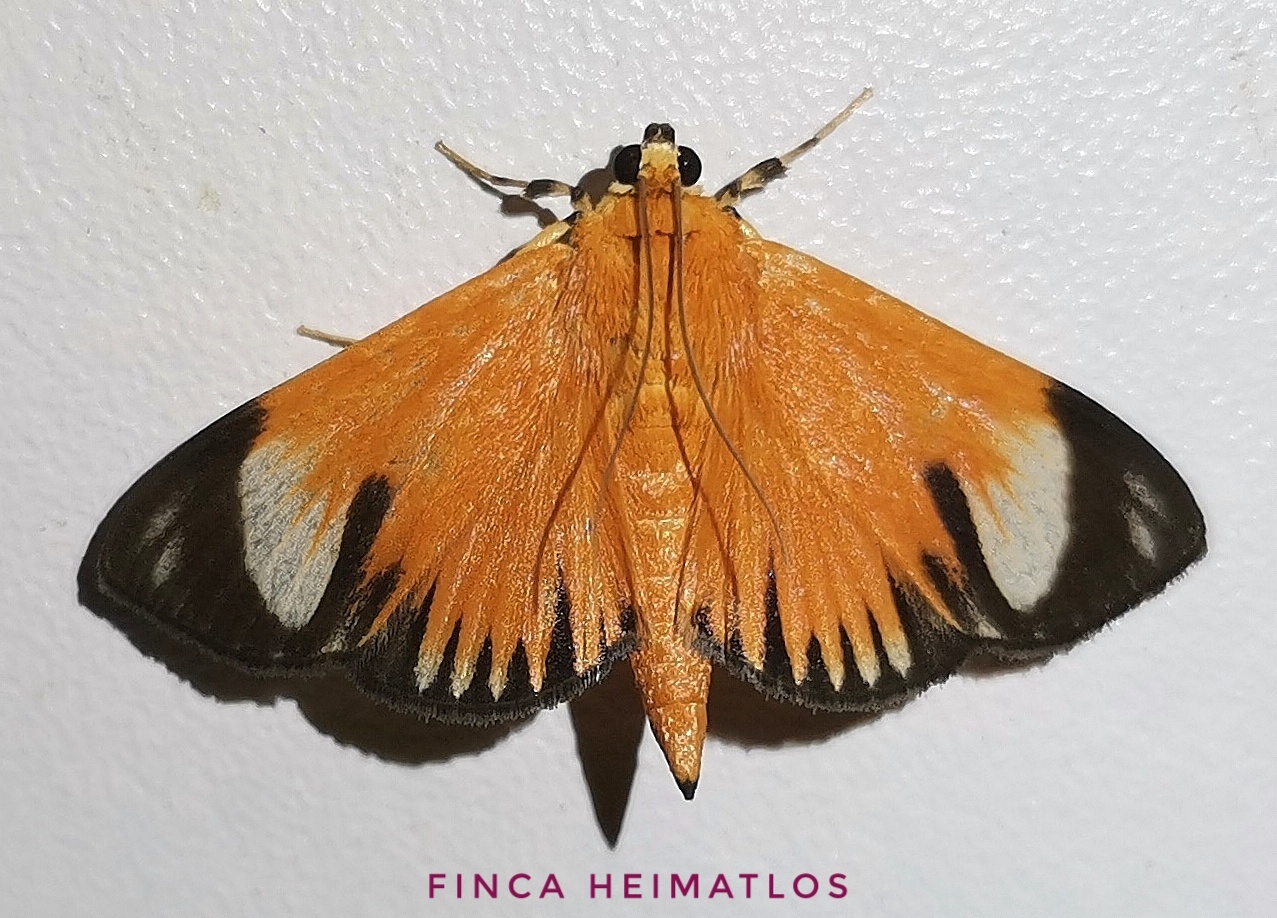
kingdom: Animalia
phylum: Arthropoda
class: Insecta
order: Lepidoptera
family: Crambidae
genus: Phostria
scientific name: Phostria lithosialis
